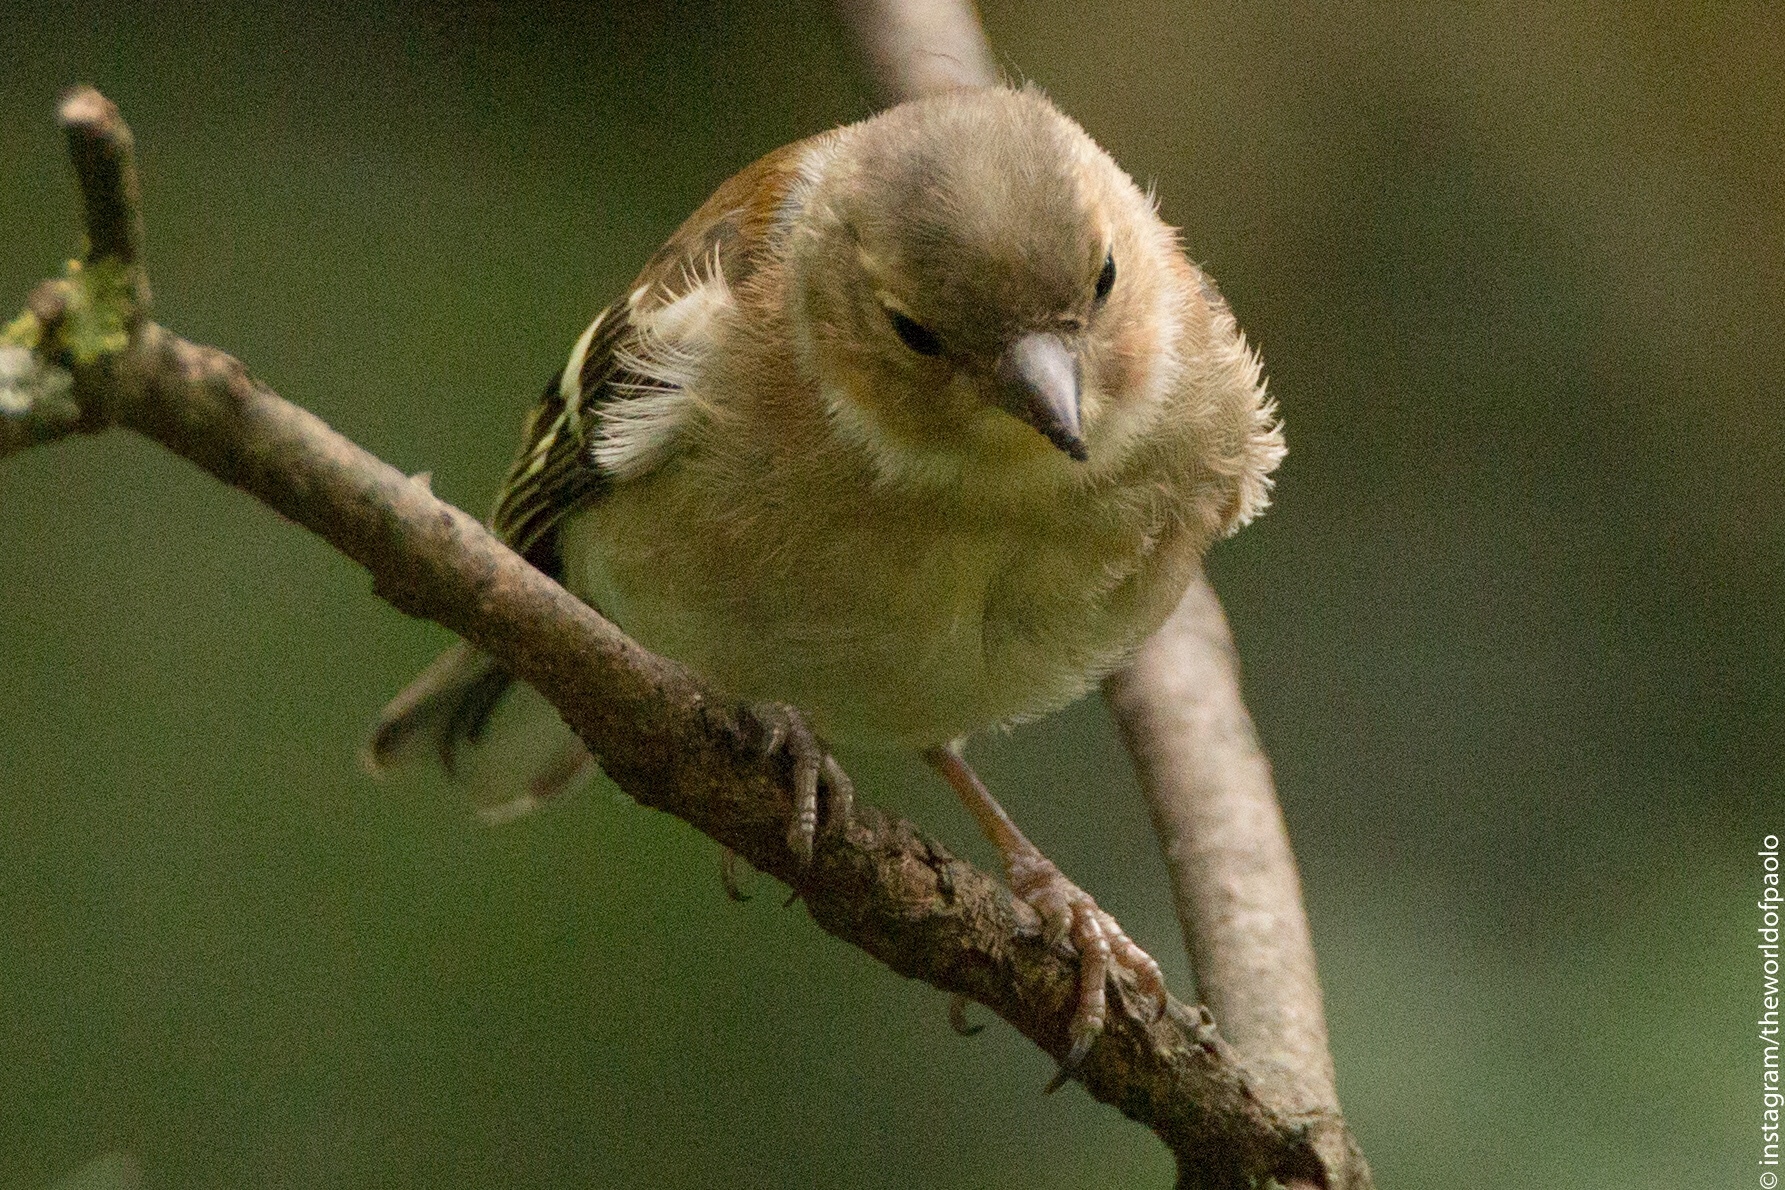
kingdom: Animalia
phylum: Chordata
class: Aves
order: Passeriformes
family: Fringillidae
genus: Fringilla
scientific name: Fringilla coelebs
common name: Common chaffinch
